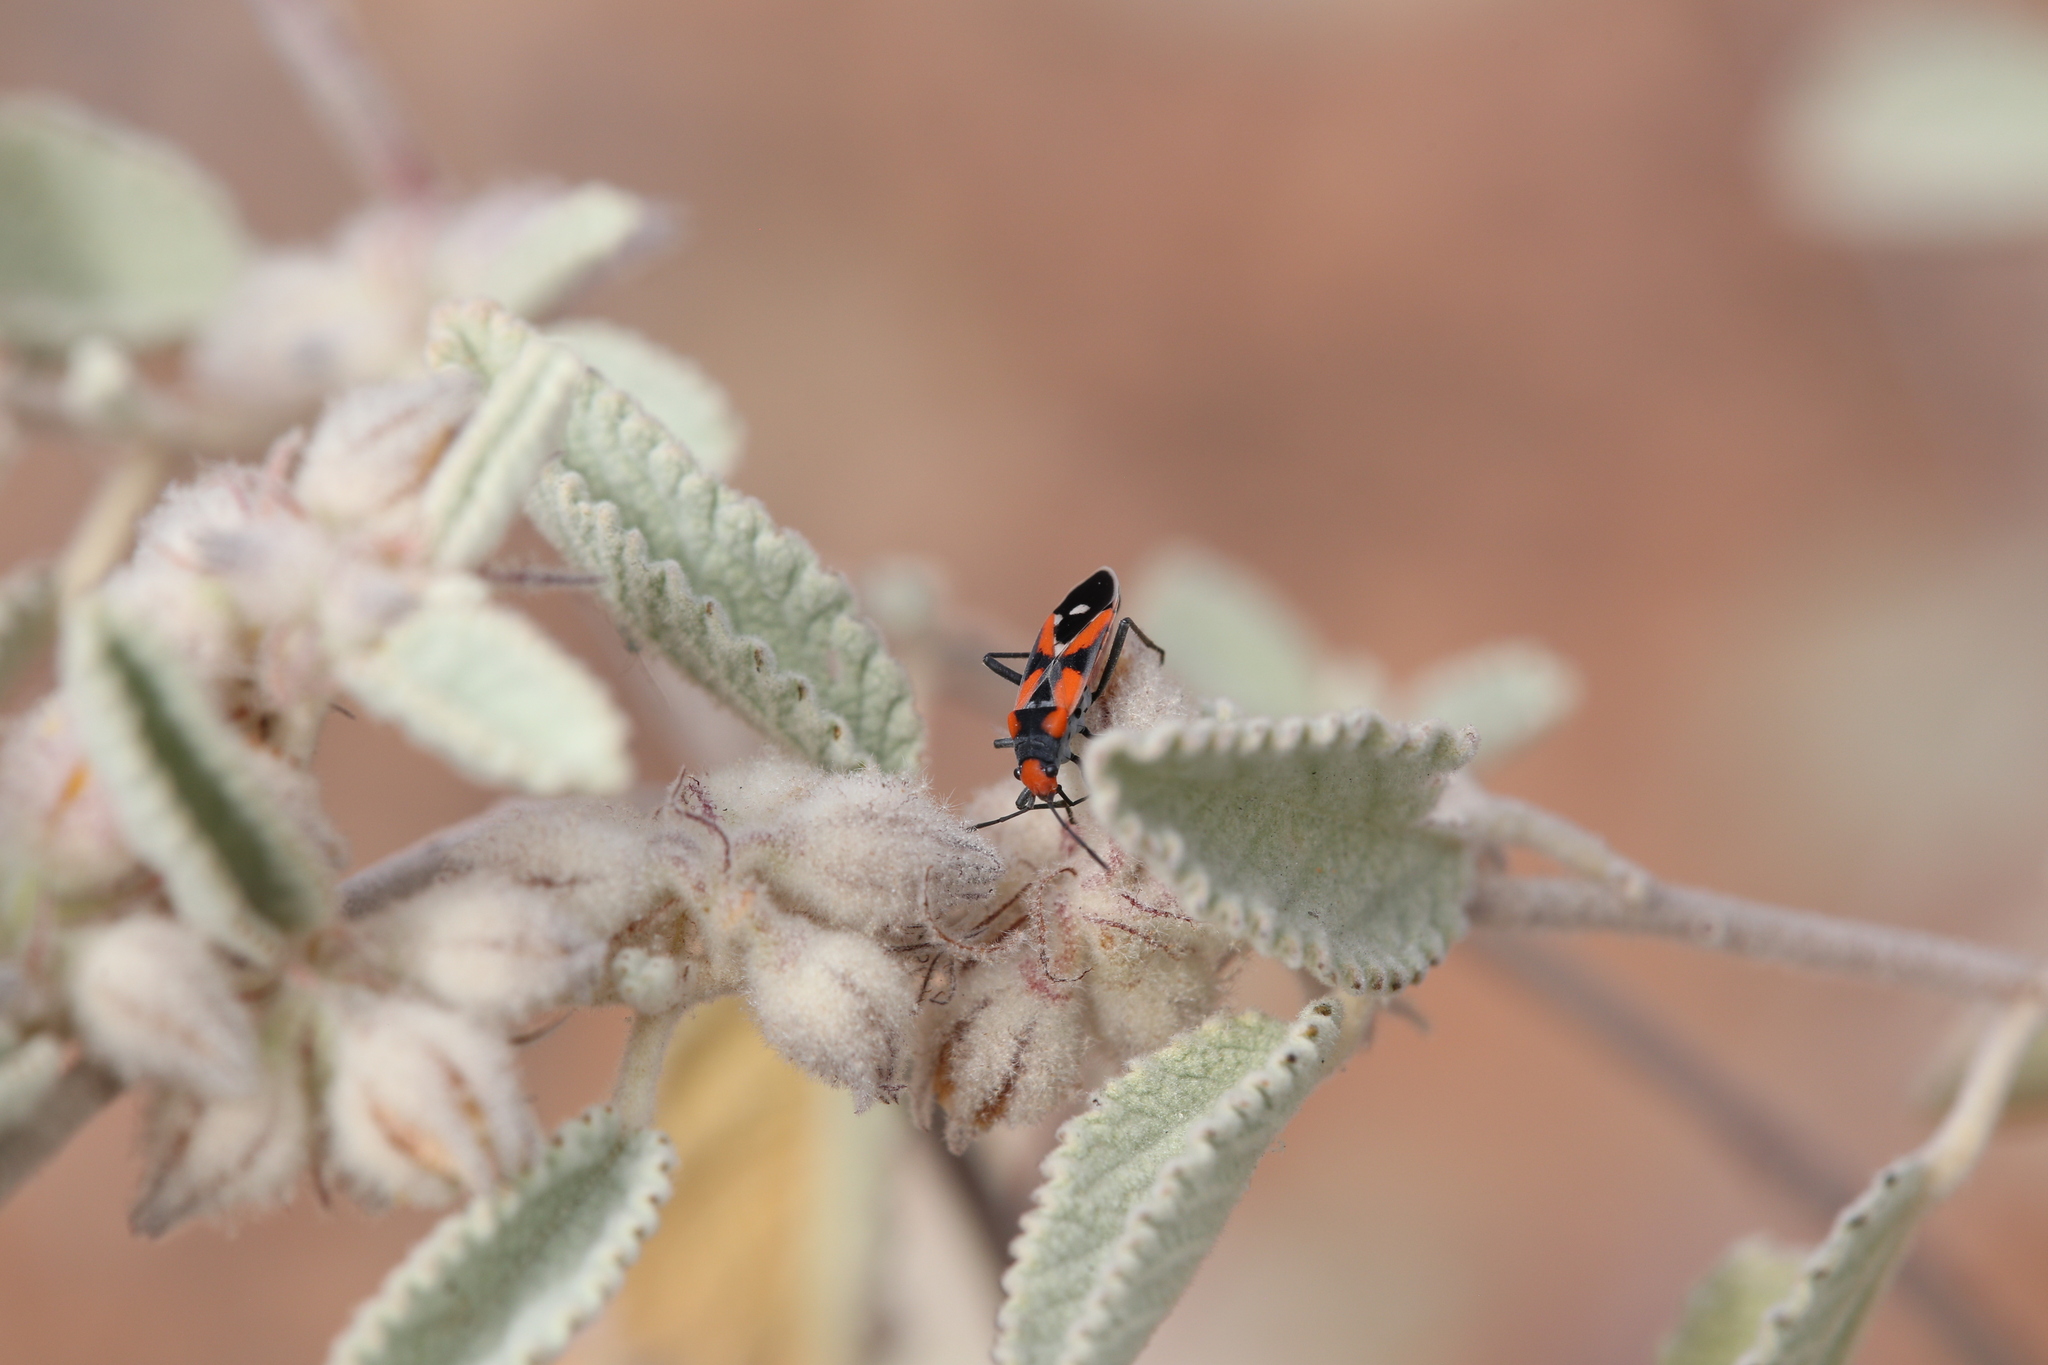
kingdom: Animalia
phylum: Arthropoda
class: Insecta
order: Hemiptera
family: Lygaeidae
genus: Melanerythrus
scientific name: Melanerythrus mactans
